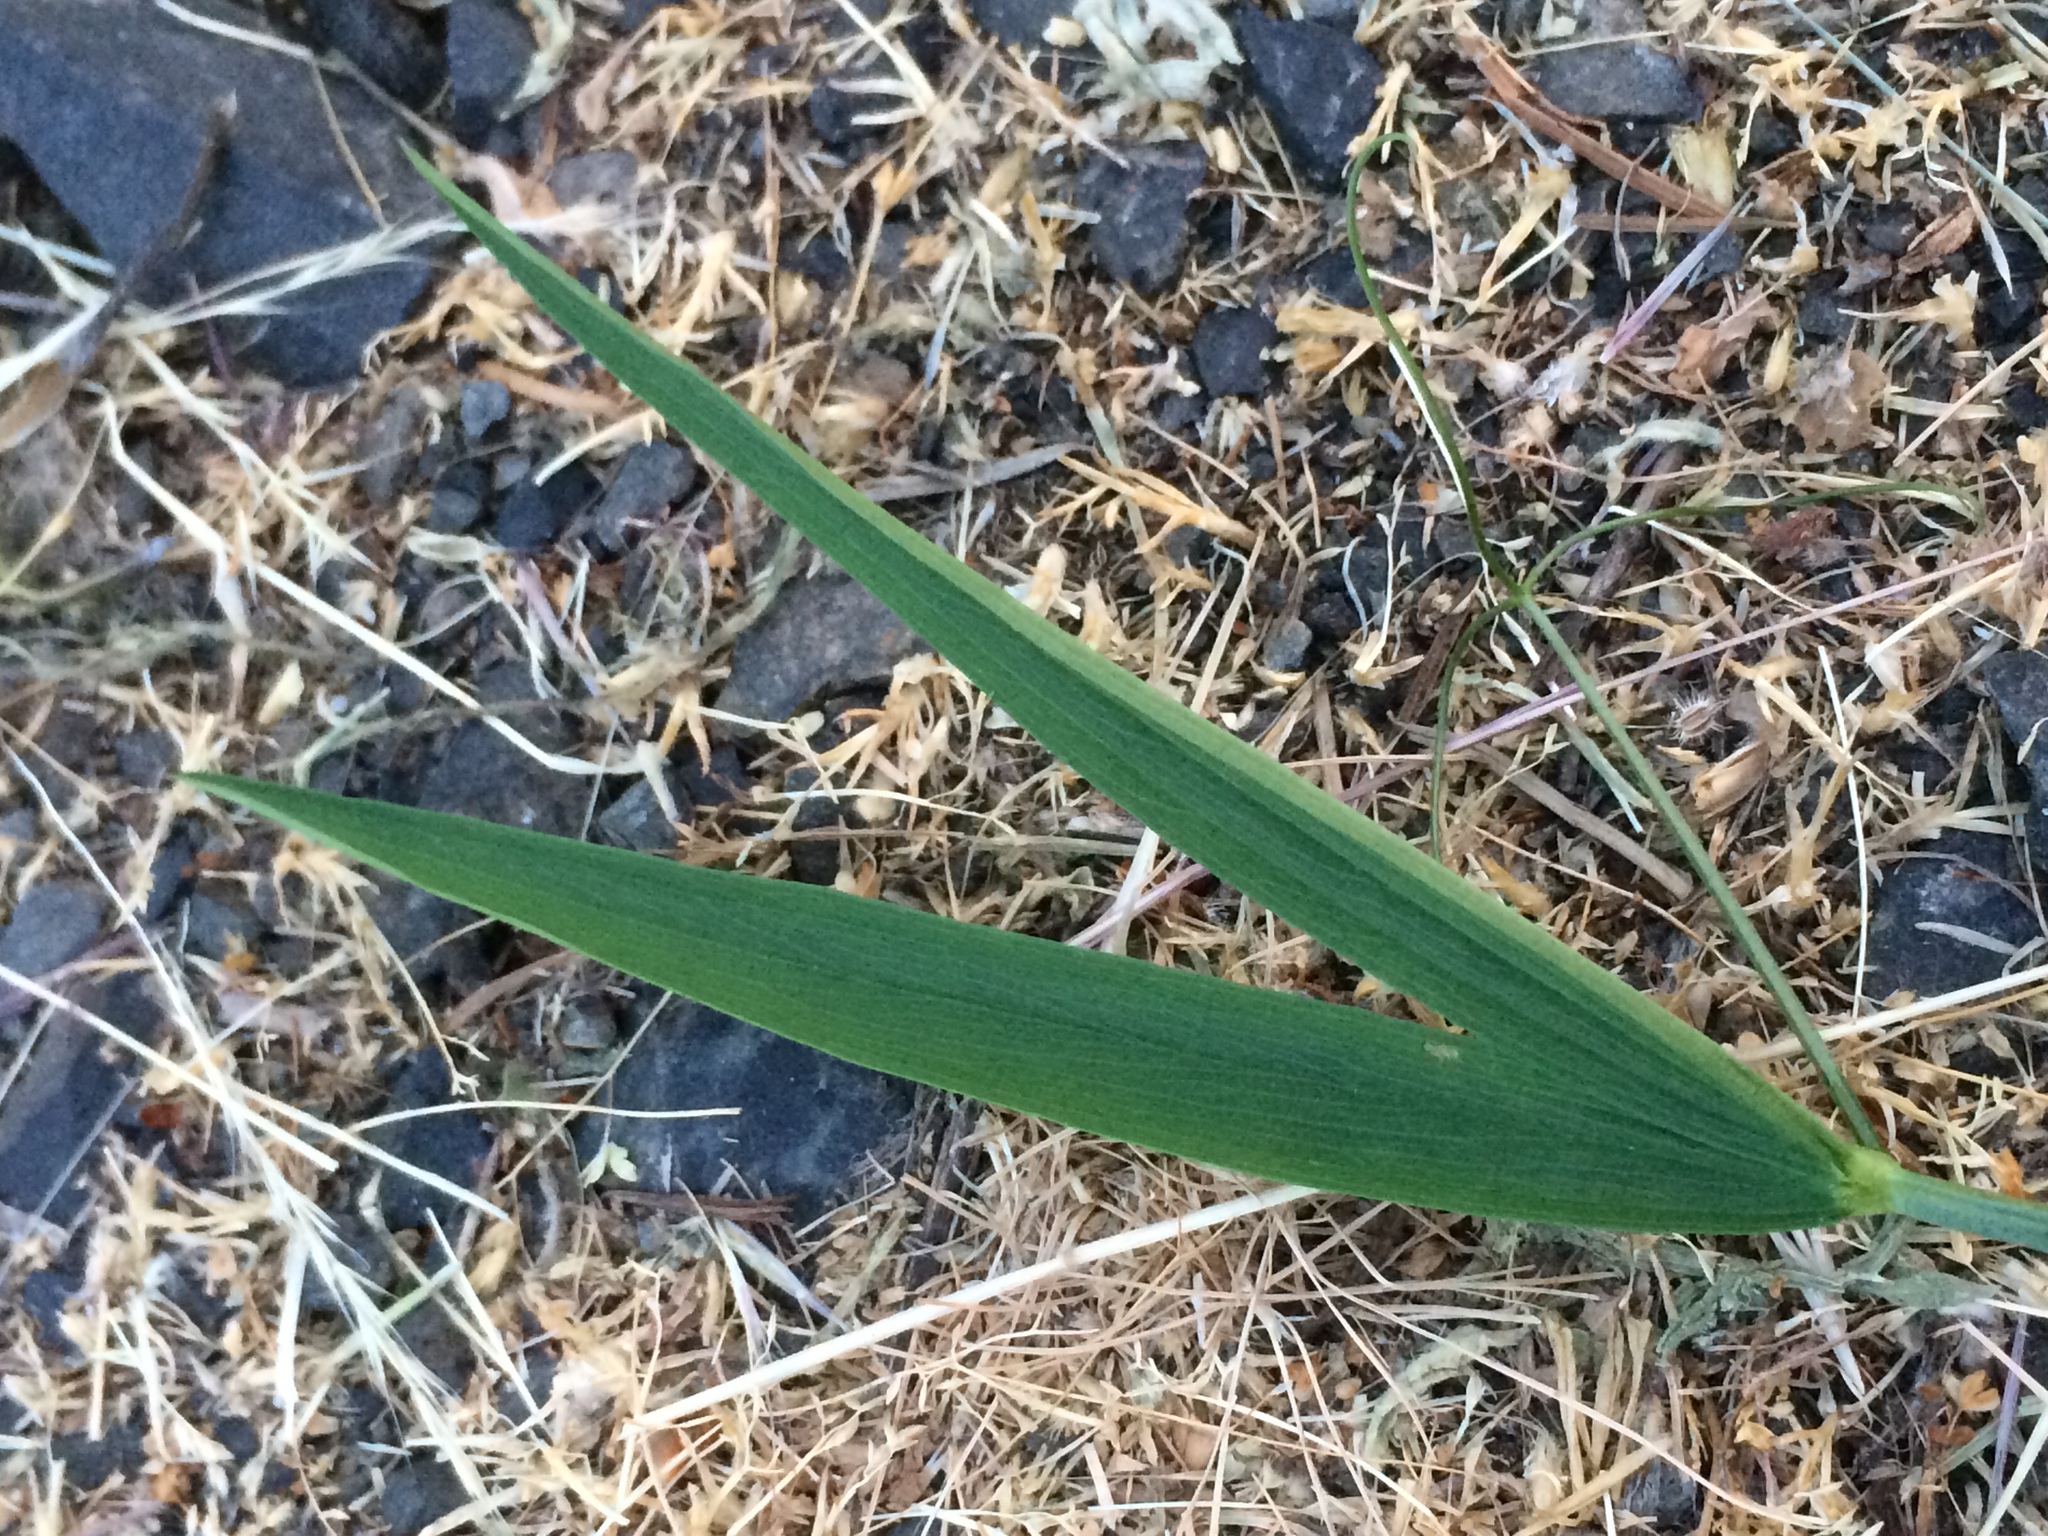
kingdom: Plantae
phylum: Tracheophyta
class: Magnoliopsida
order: Fabales
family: Fabaceae
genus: Lathyrus
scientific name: Lathyrus latifolius
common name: Perennial pea
